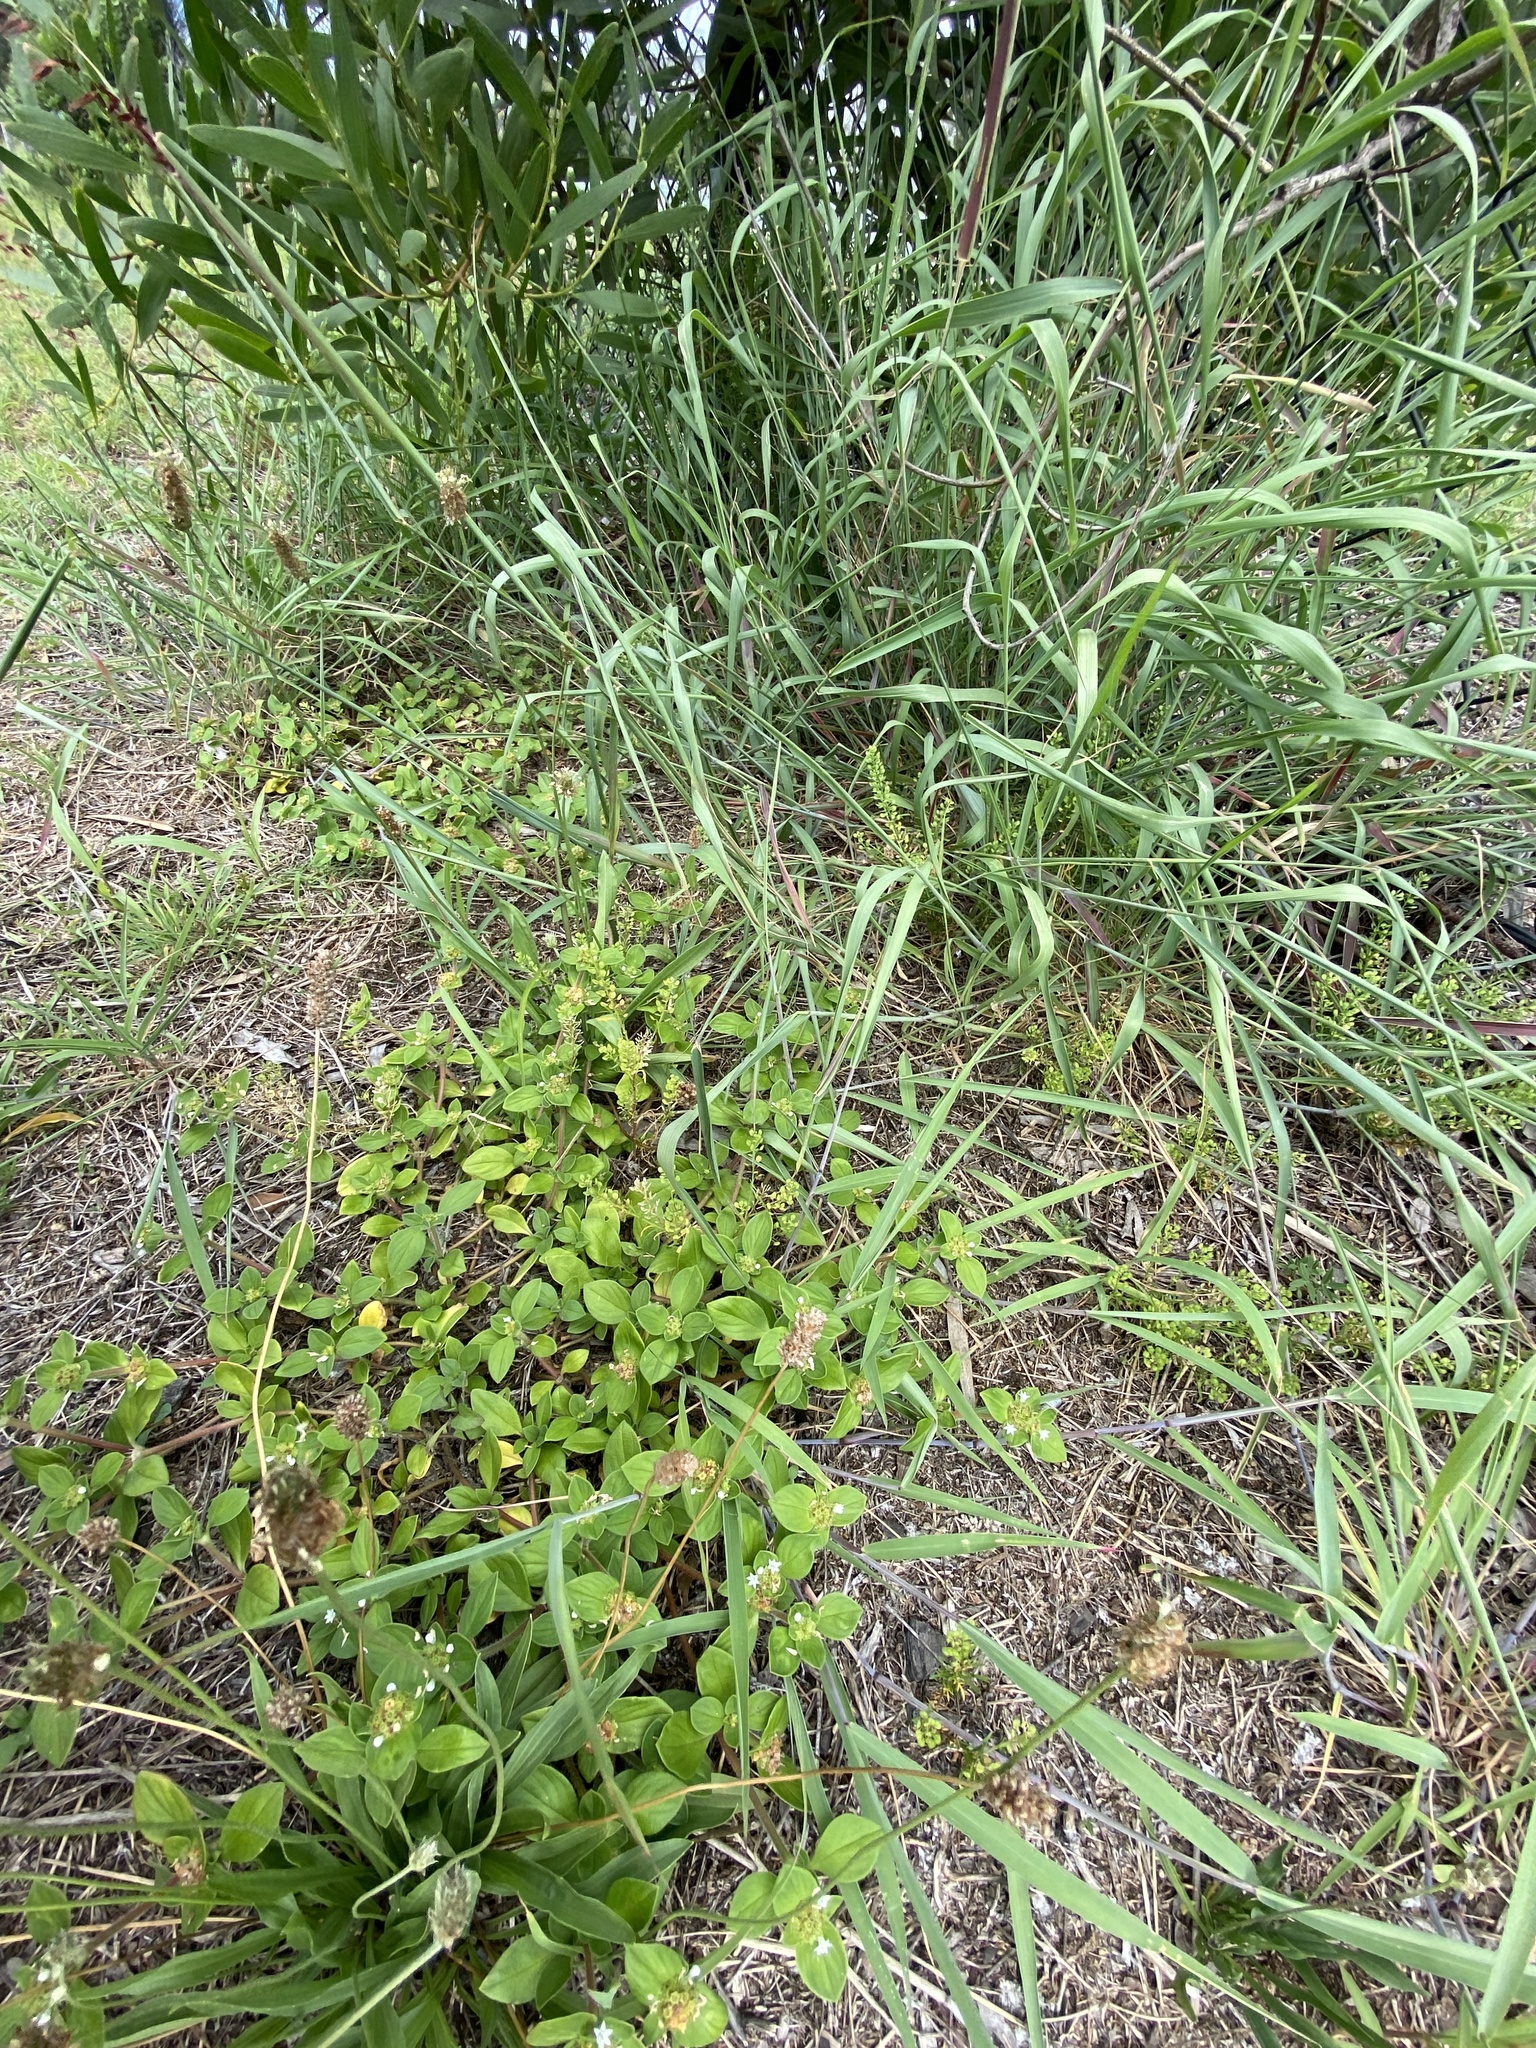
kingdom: Plantae
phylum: Tracheophyta
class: Magnoliopsida
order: Gentianales
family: Rubiaceae
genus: Richardia
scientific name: Richardia brasiliensis
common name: Tropical mexican clover
